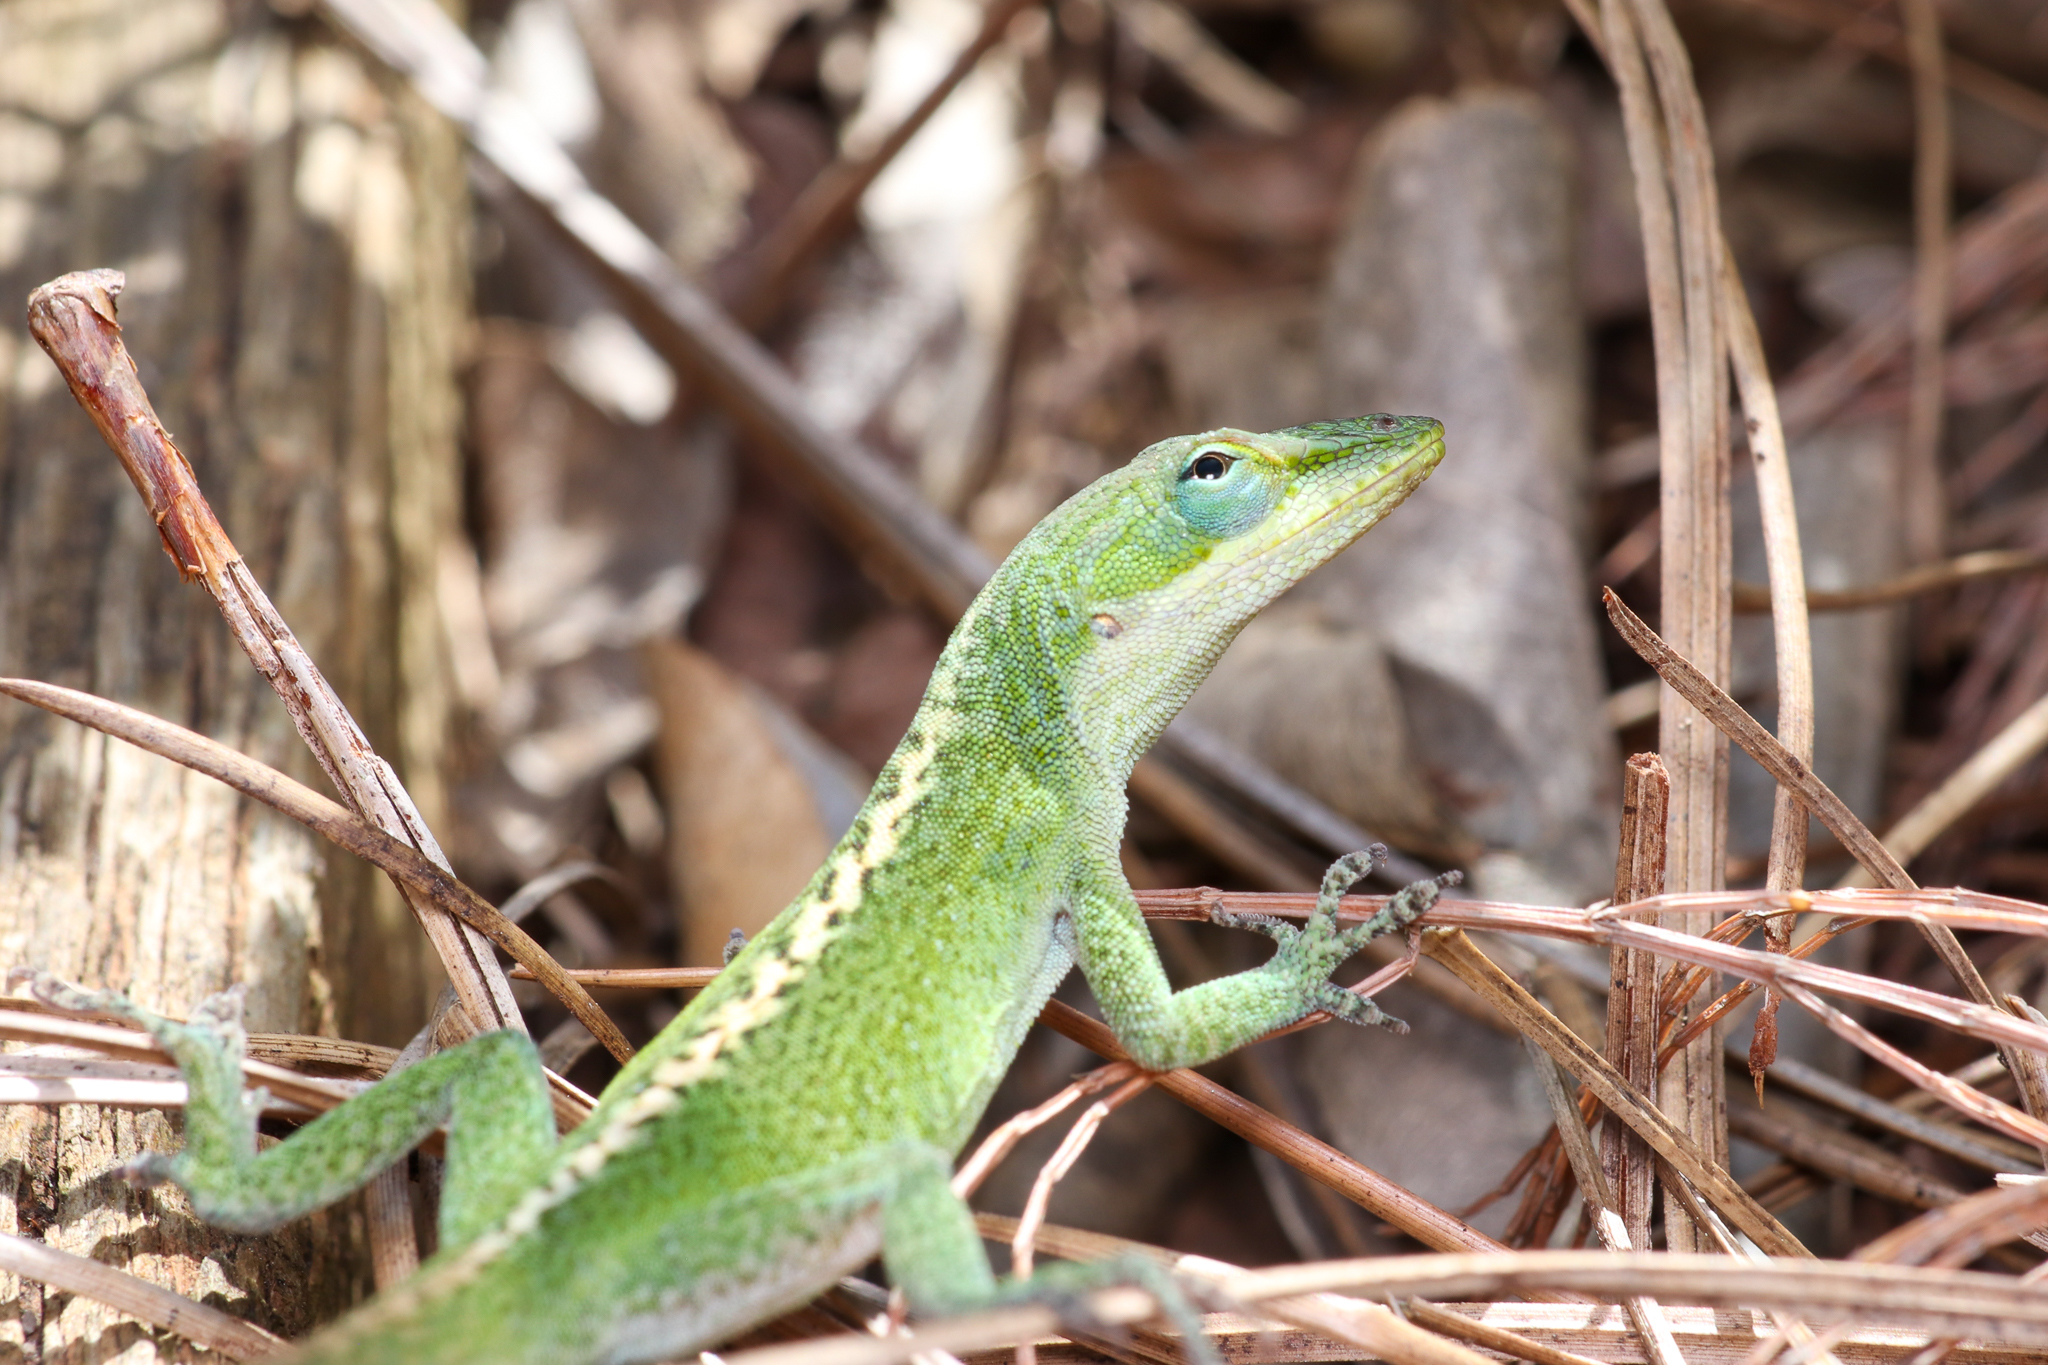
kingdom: Animalia
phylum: Chordata
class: Squamata
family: Dactyloidae
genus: Anolis
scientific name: Anolis carolinensis
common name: Green anole
